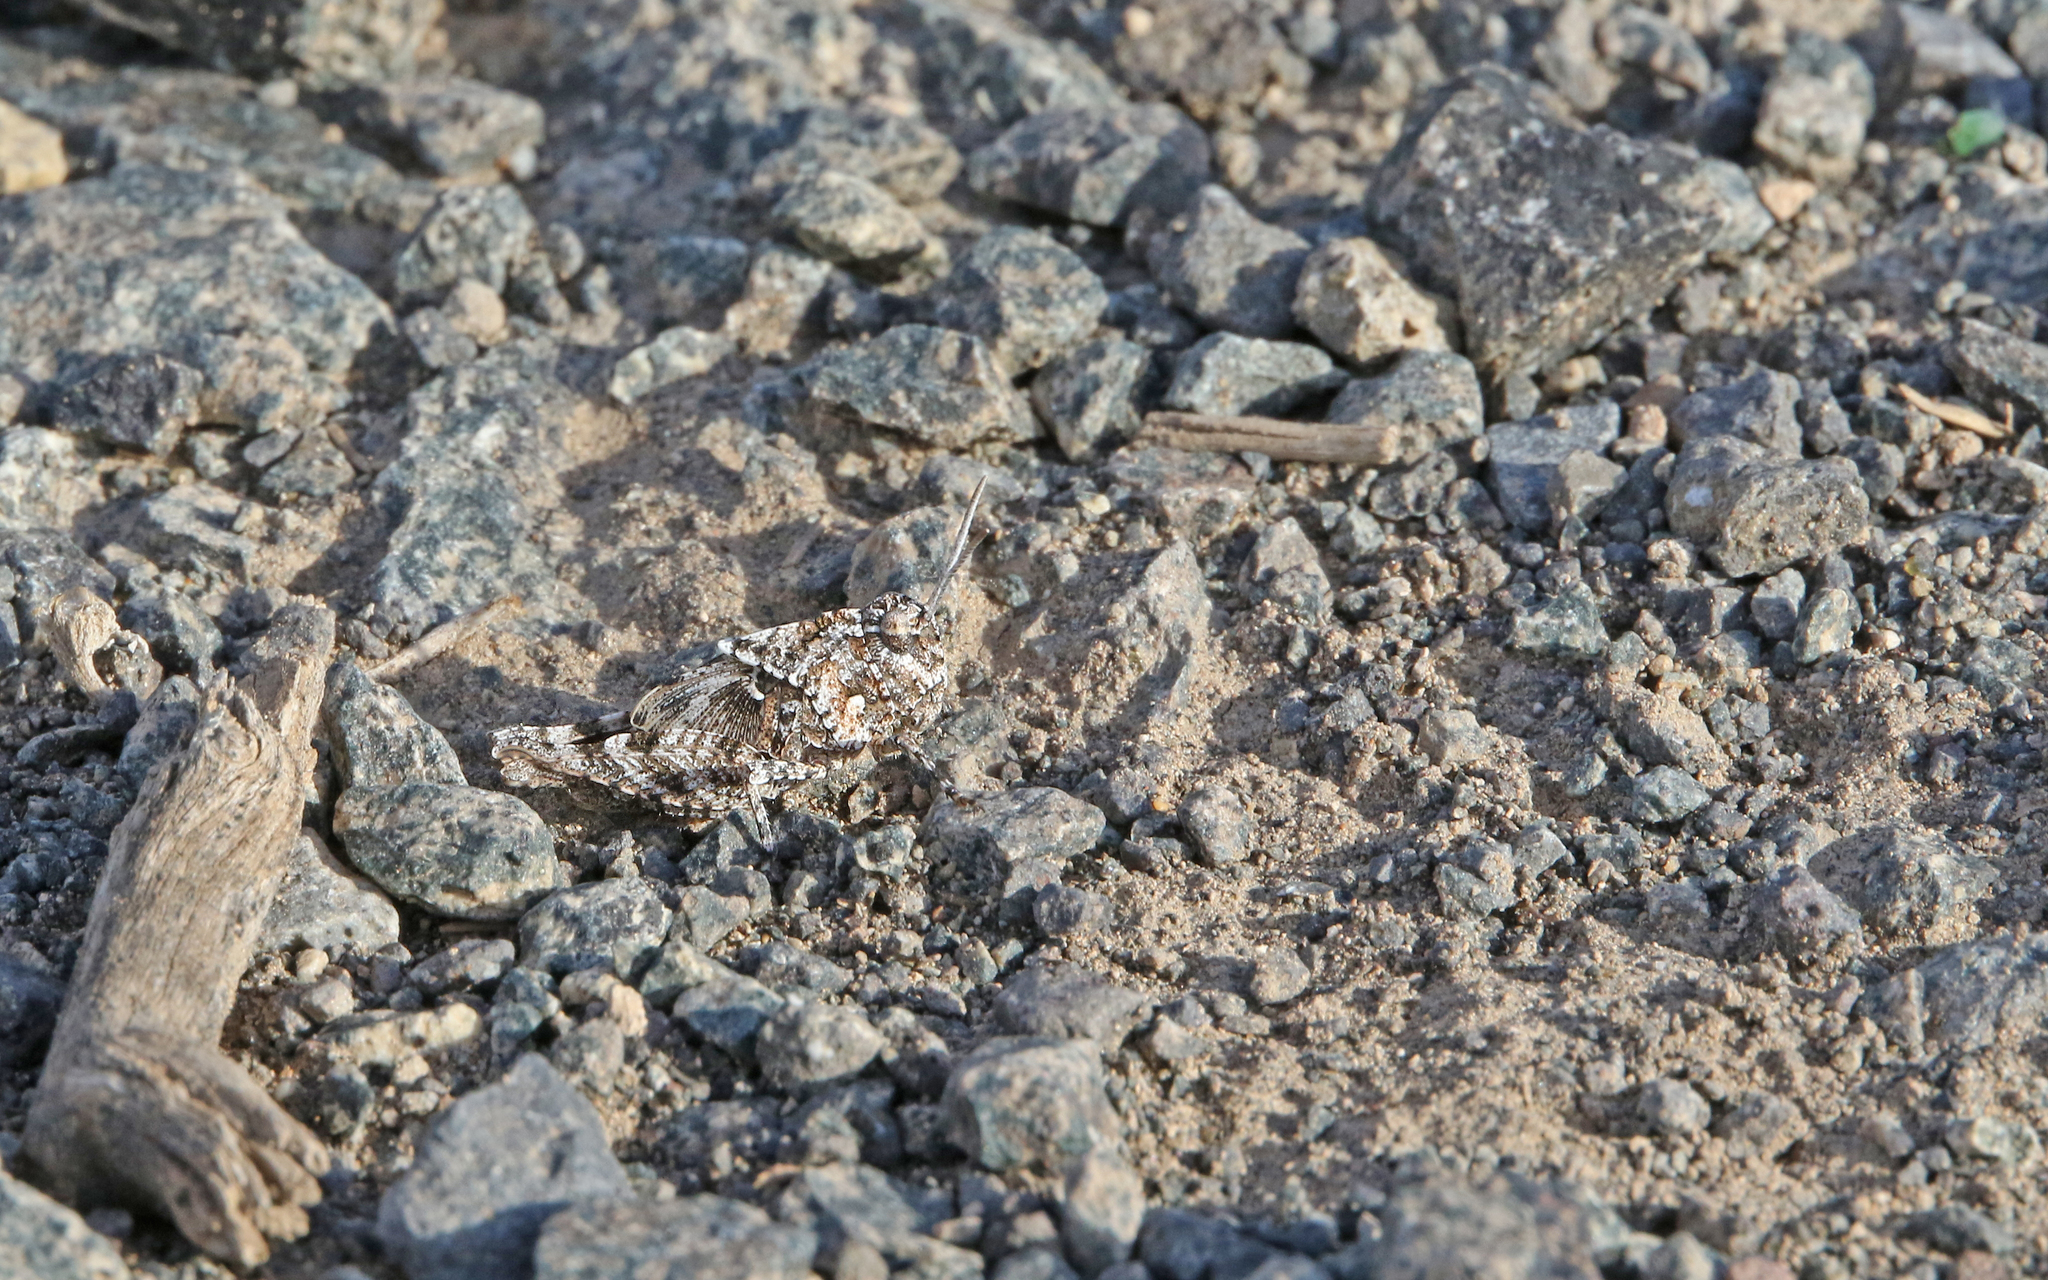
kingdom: Animalia
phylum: Arthropoda
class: Insecta
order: Orthoptera
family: Acrididae
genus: Oedipoda
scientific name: Oedipoda canariensis
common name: Canarian band-winged grasshopper
